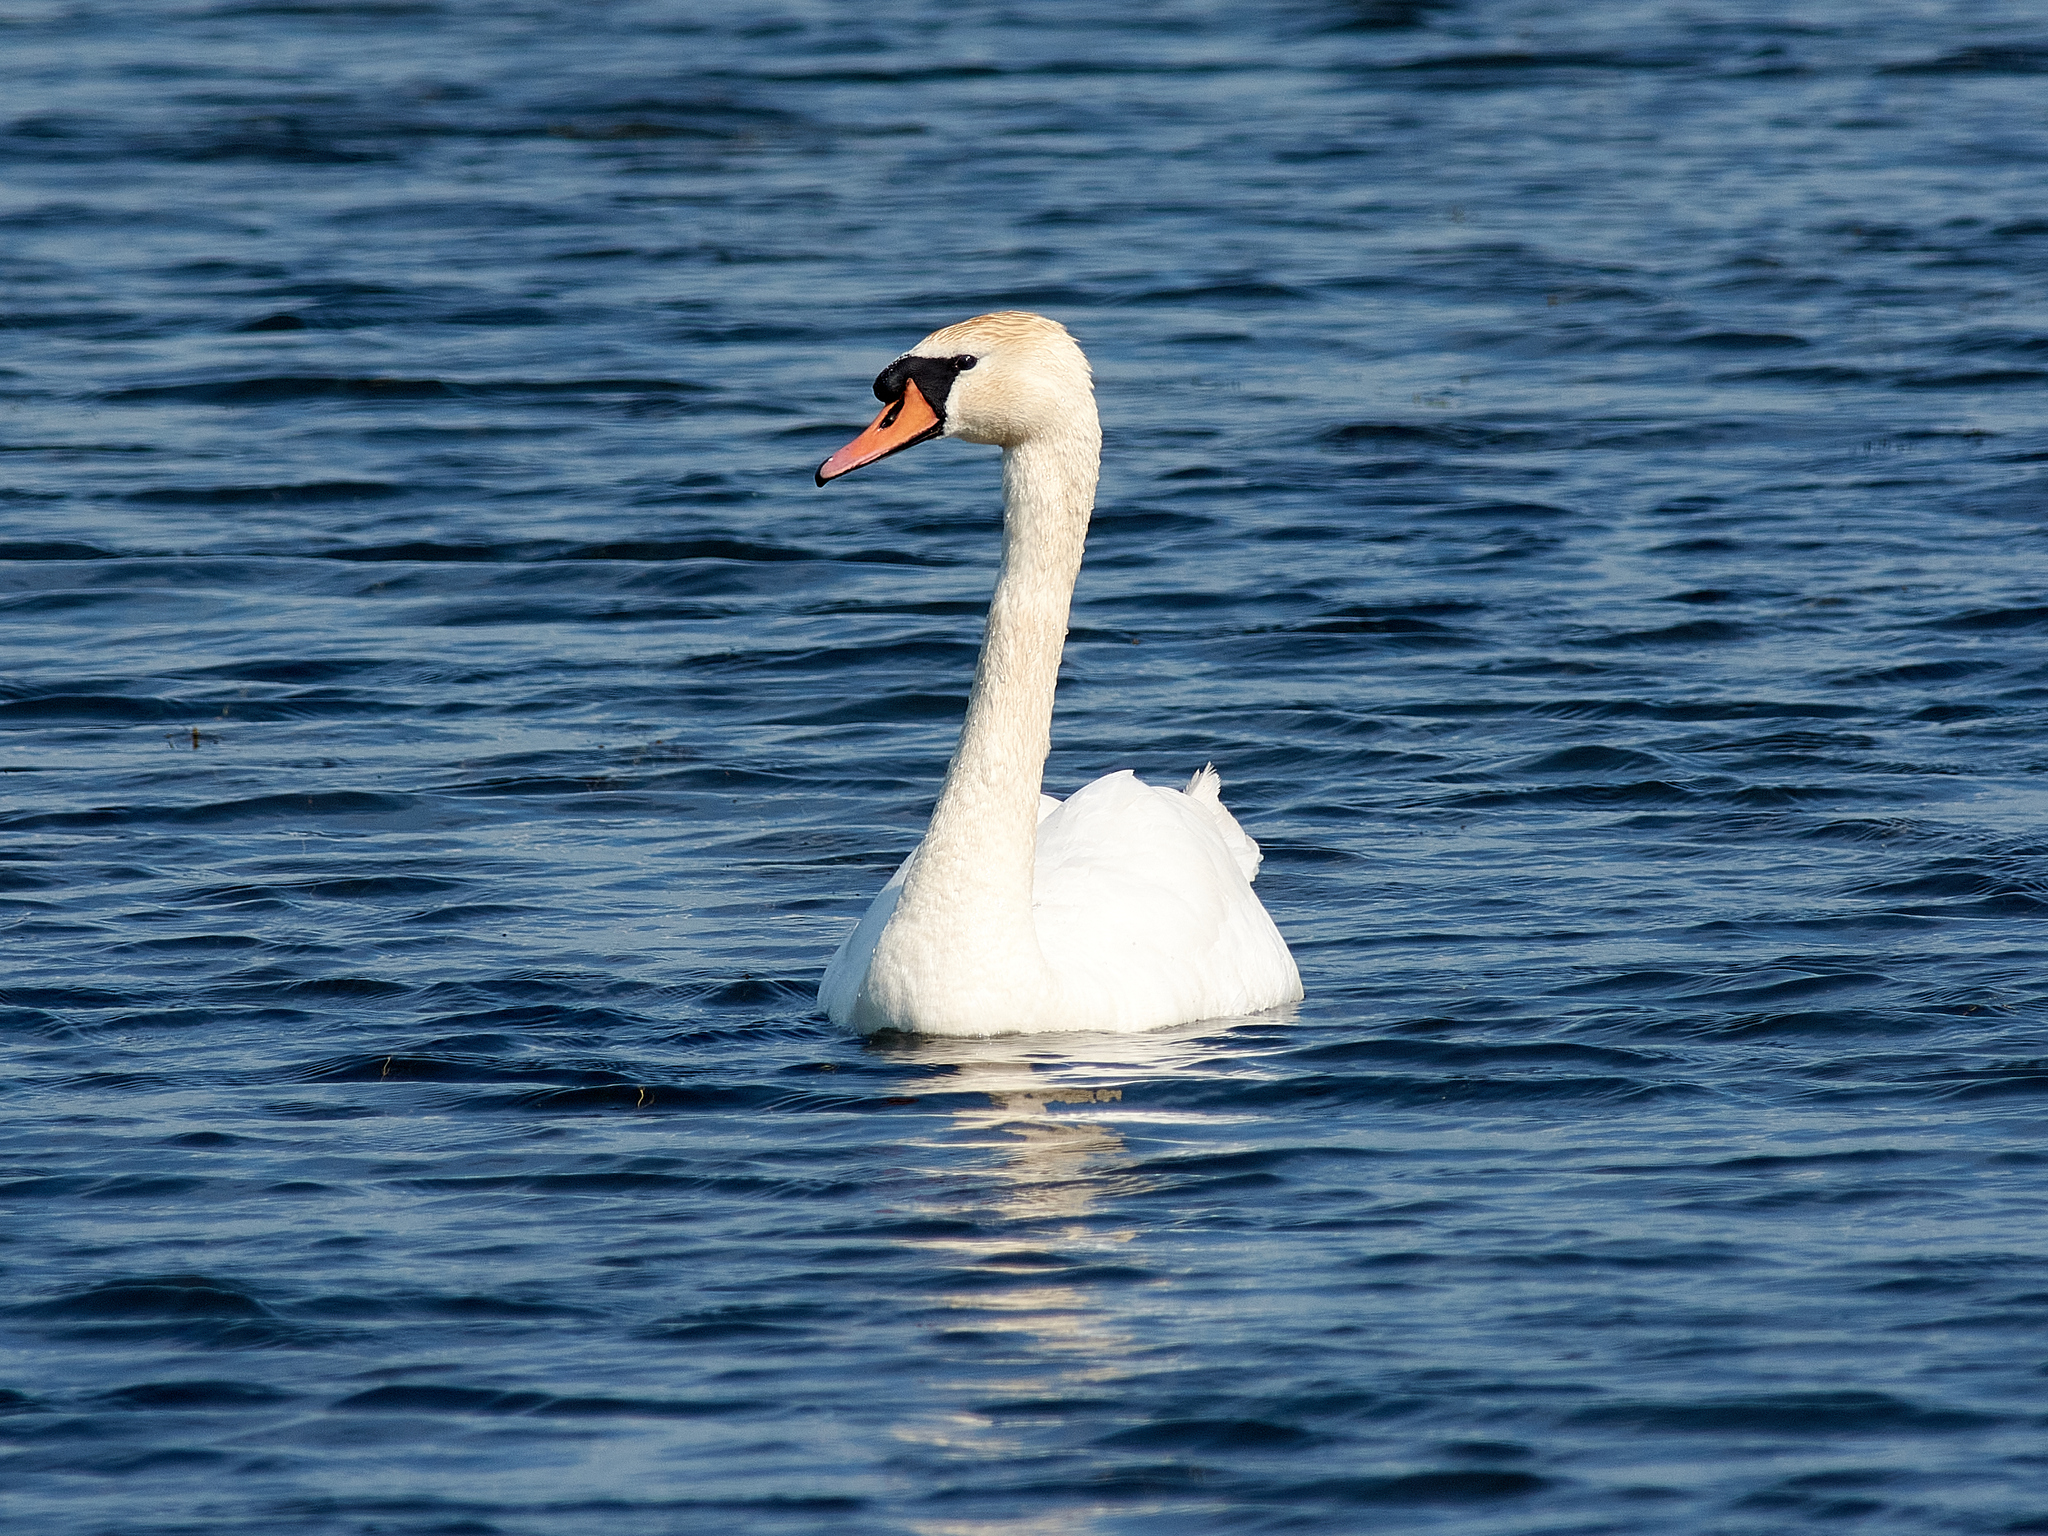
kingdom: Animalia
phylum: Chordata
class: Aves
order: Anseriformes
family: Anatidae
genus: Cygnus
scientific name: Cygnus olor
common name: Mute swan
